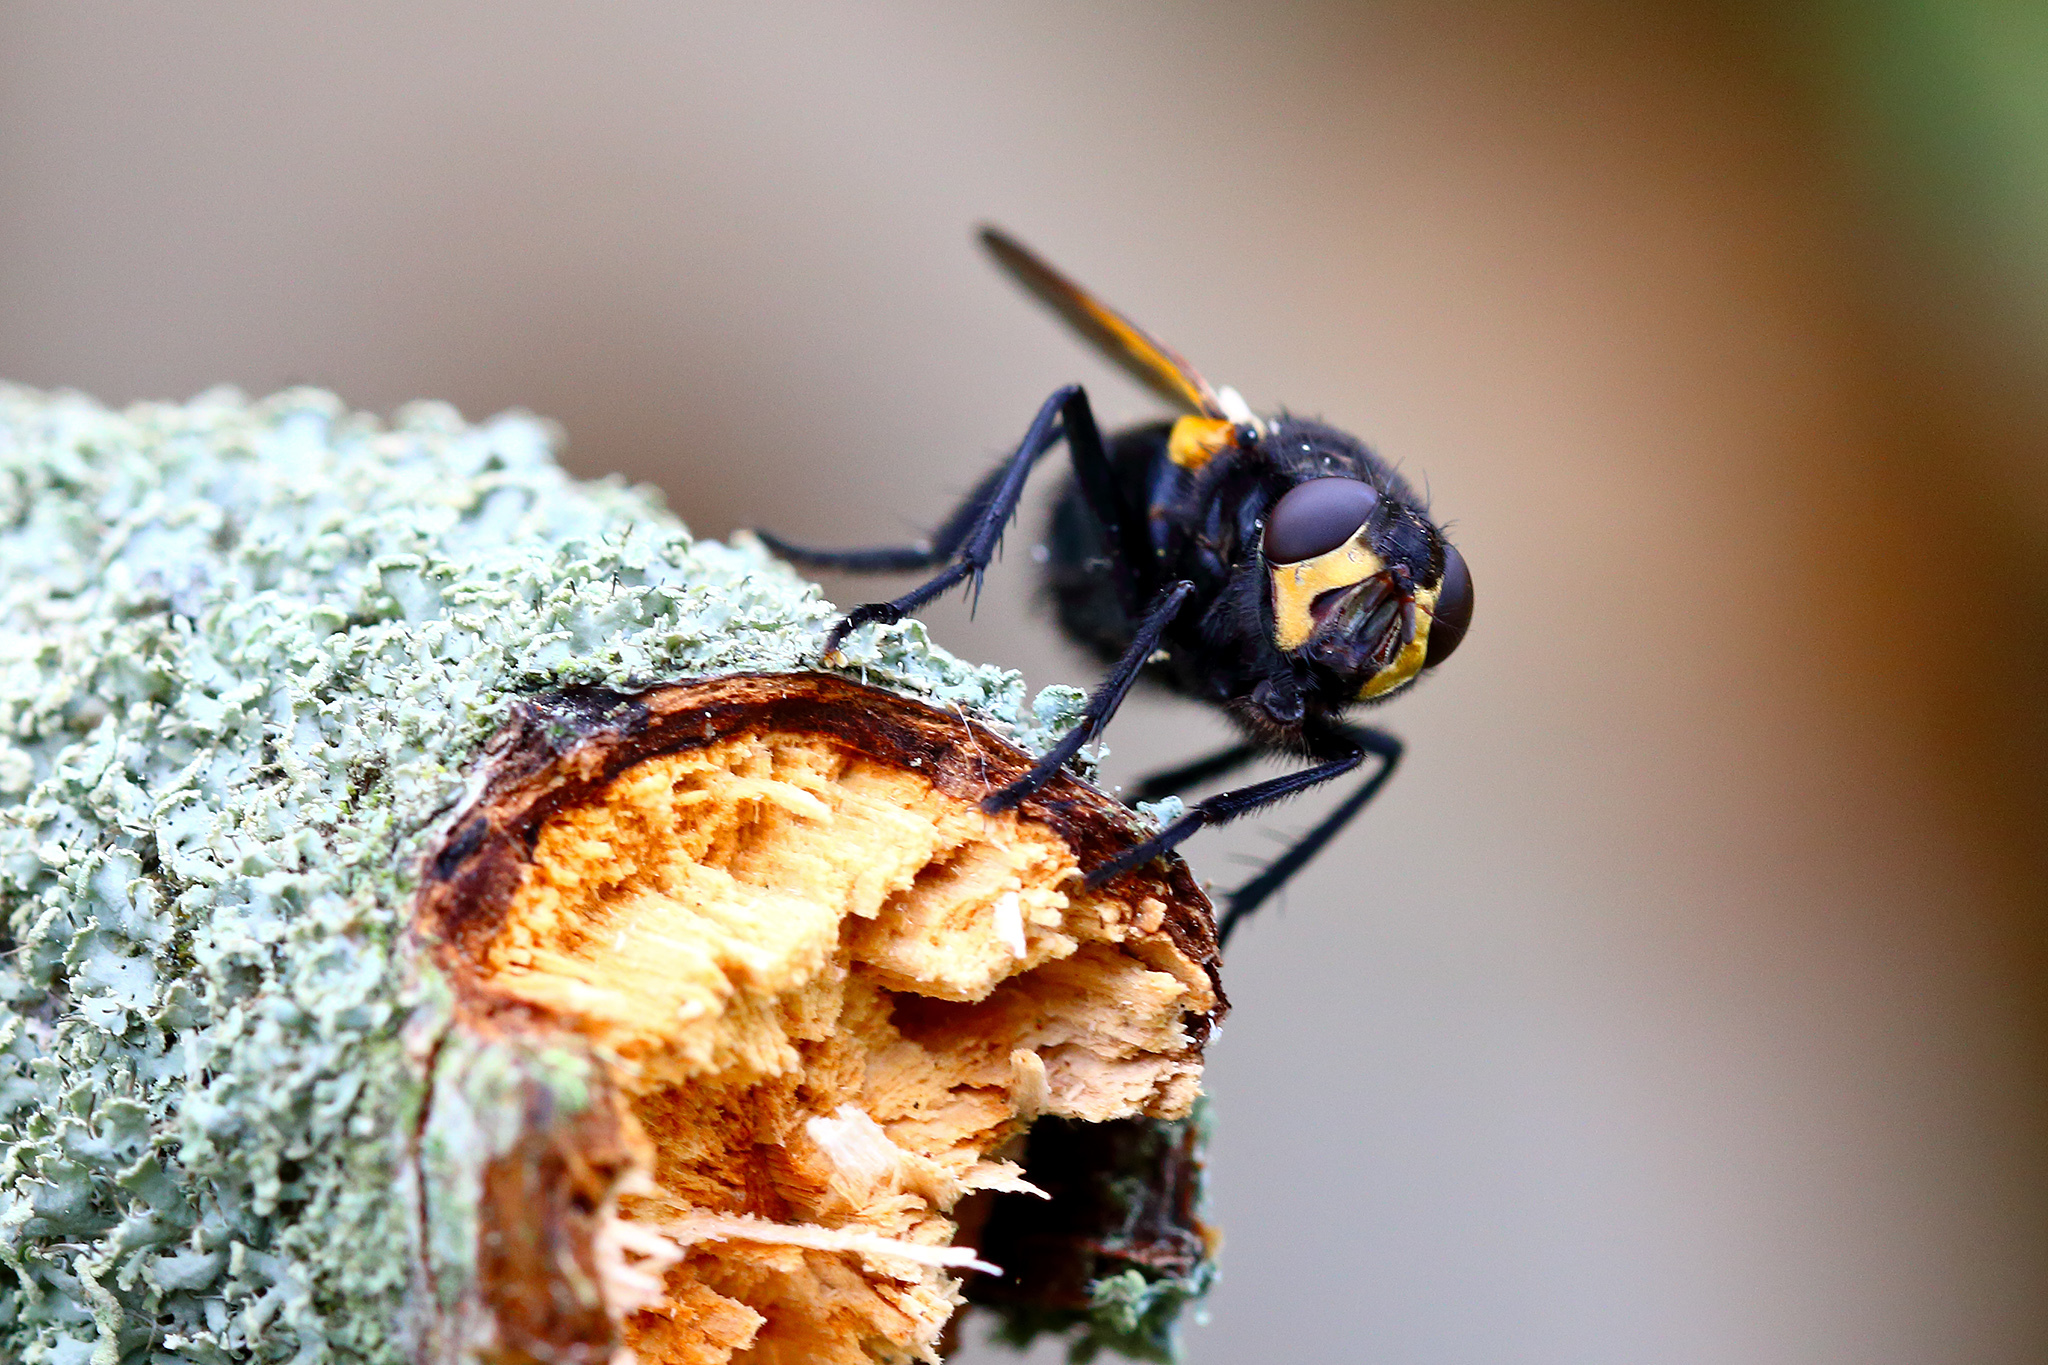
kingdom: Animalia
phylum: Arthropoda
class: Insecta
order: Diptera
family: Muscidae
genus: Mesembrina
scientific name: Mesembrina meridiana
